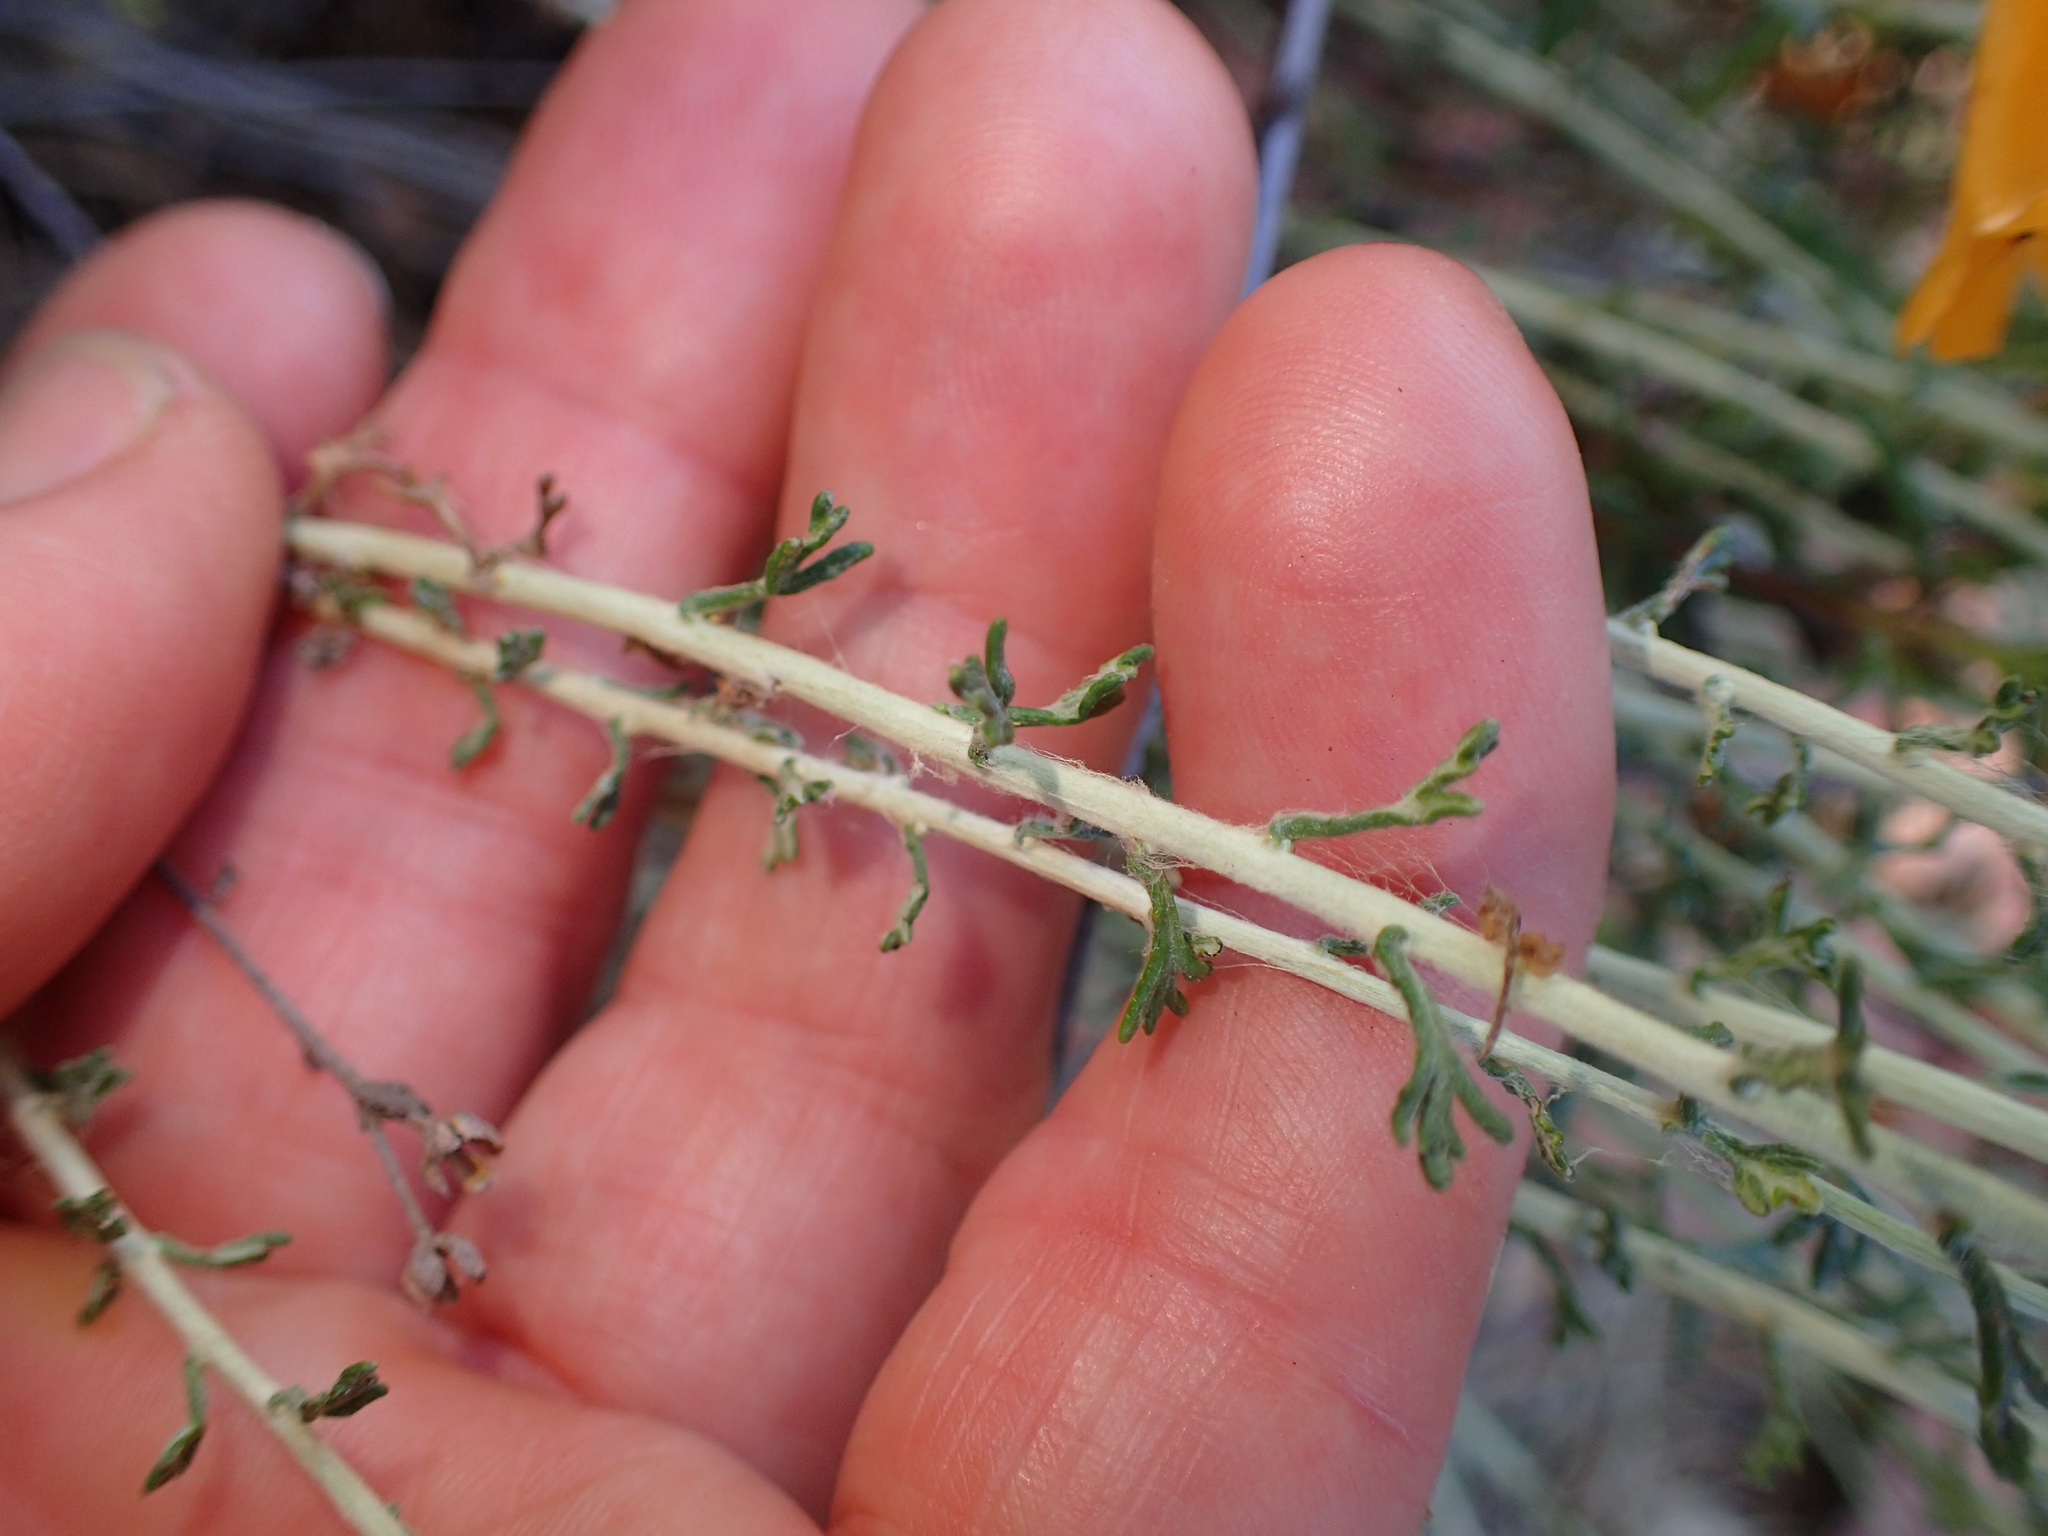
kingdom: Plantae
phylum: Tracheophyta
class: Magnoliopsida
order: Asterales
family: Asteraceae
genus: Eriophyllum
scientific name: Eriophyllum confertiflorum
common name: Golden-yarrow
